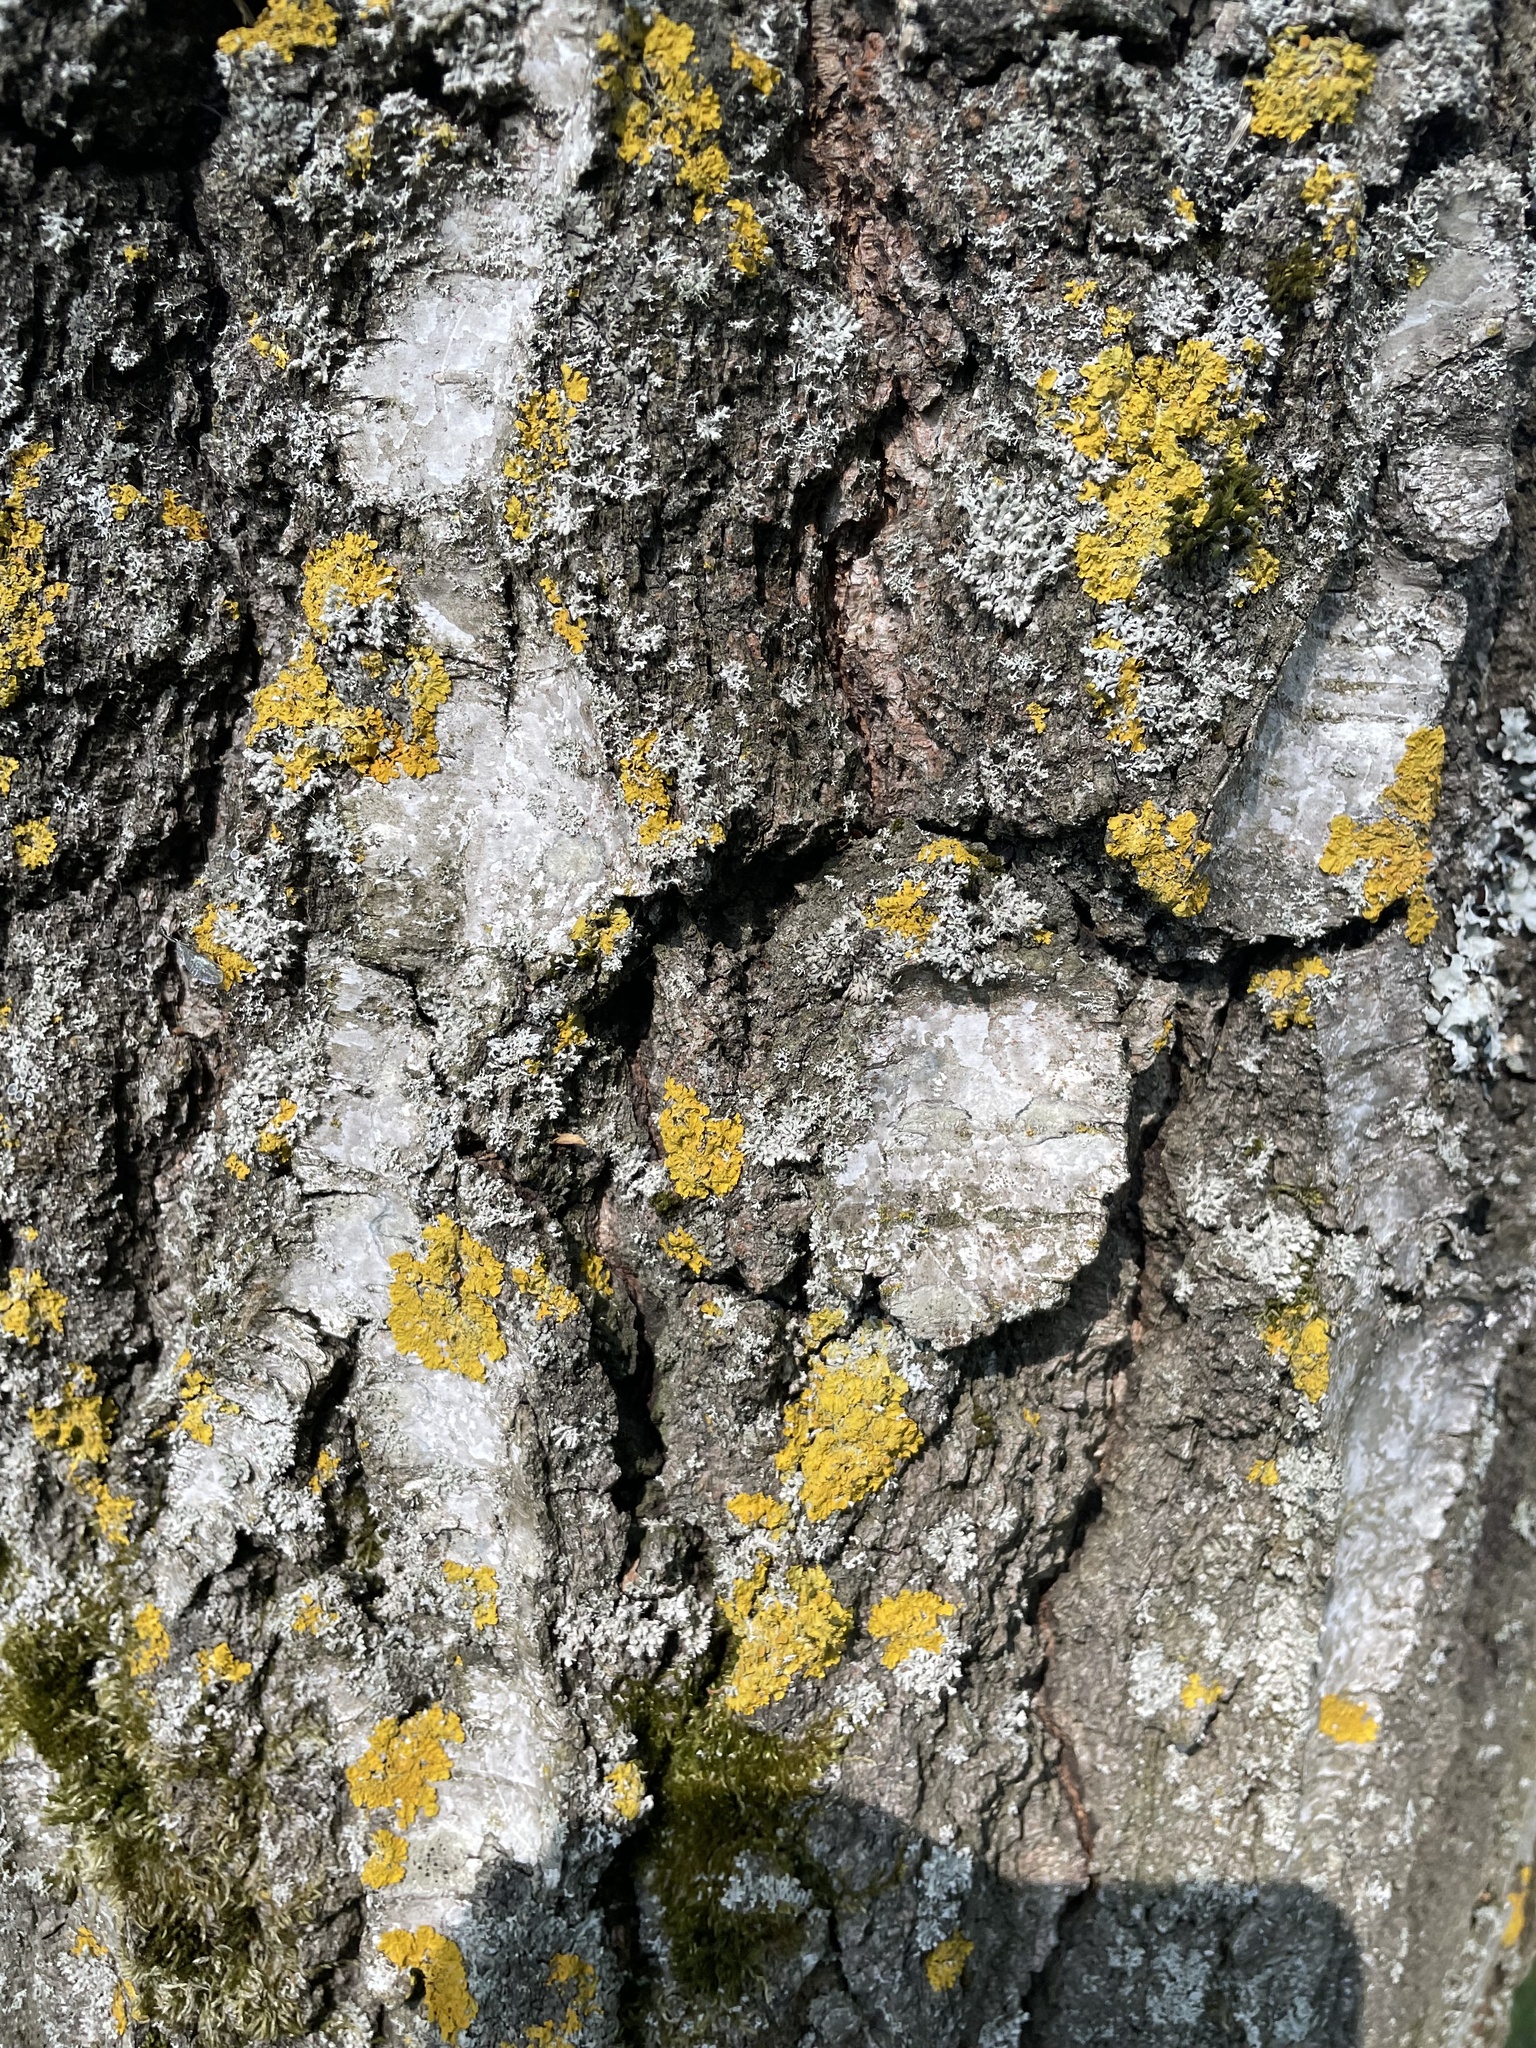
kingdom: Fungi
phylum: Ascomycota
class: Lecanoromycetes
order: Teloschistales
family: Teloschistaceae
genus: Xanthoria
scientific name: Xanthoria parietina
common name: Common orange lichen
